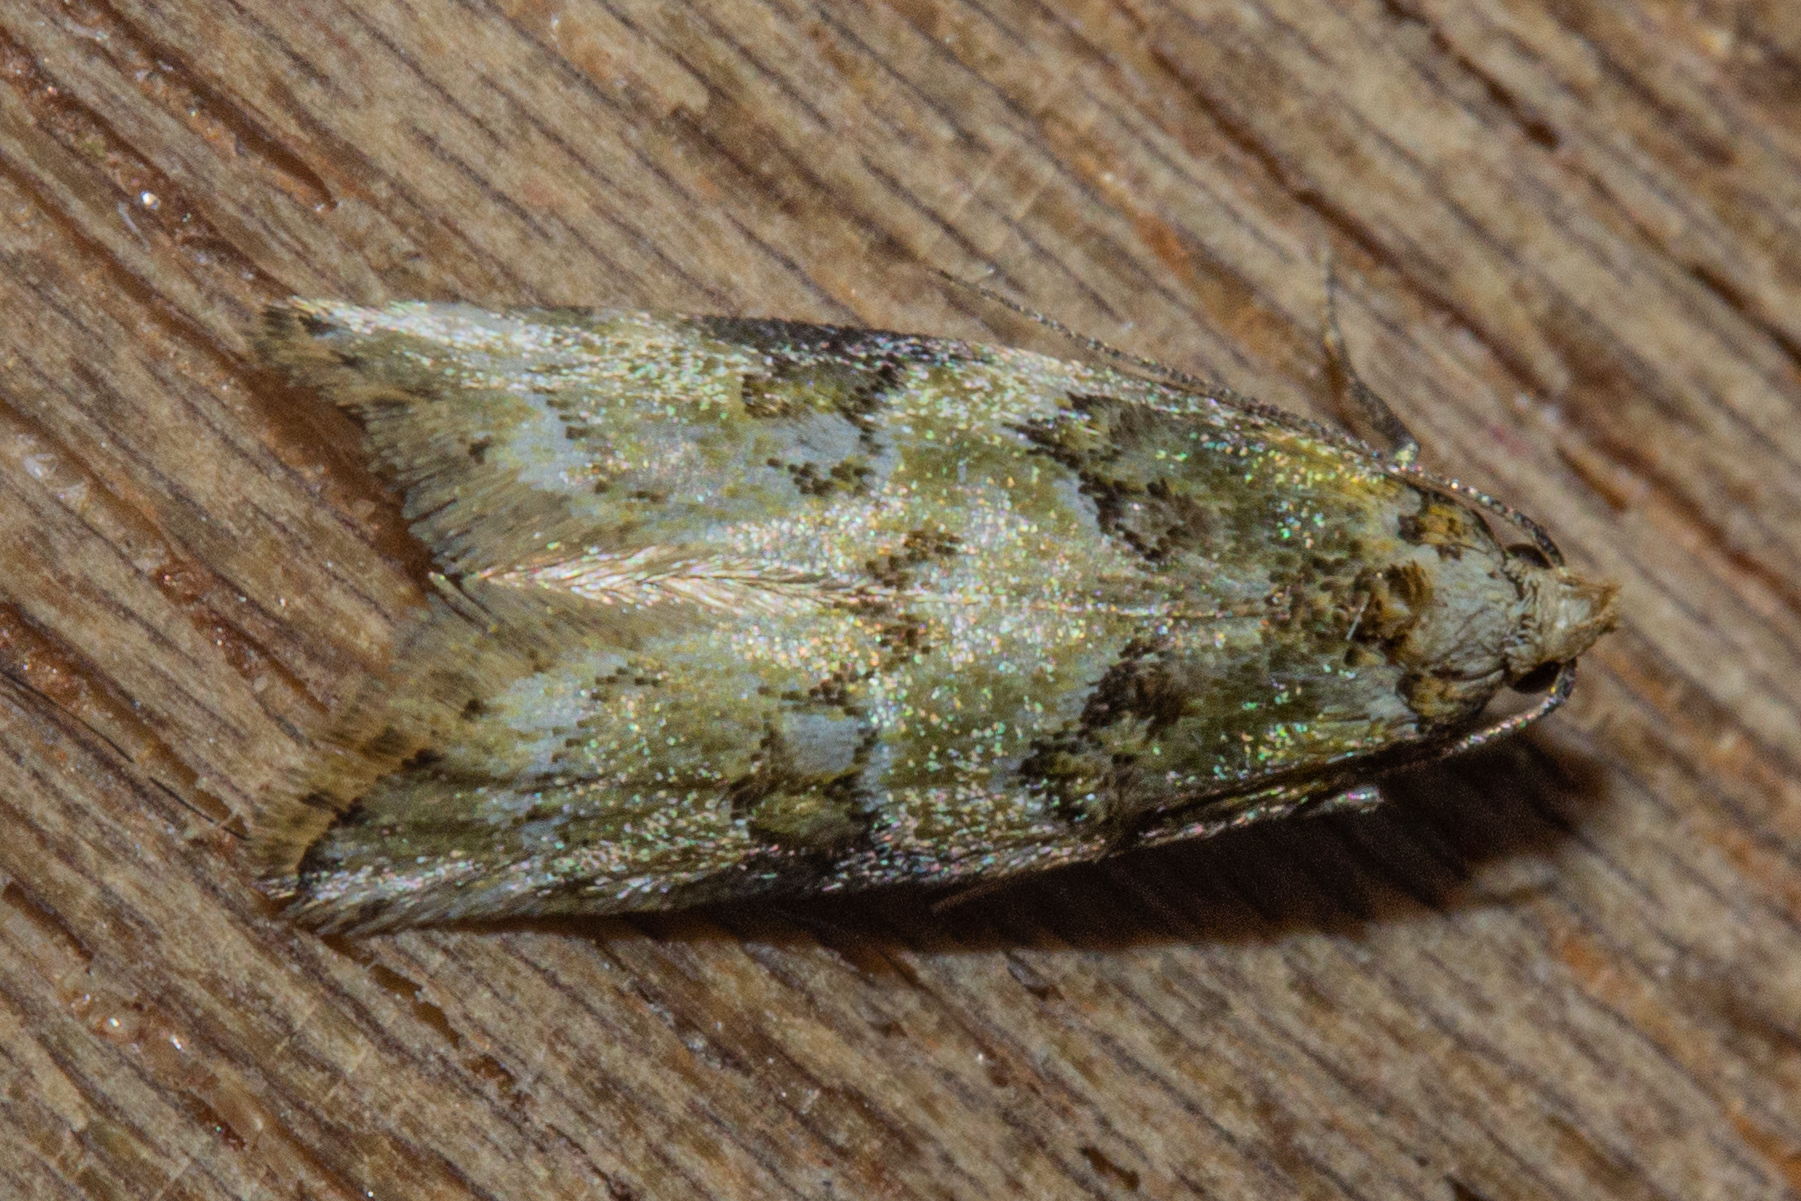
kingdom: Animalia
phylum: Arthropoda
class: Insecta
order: Lepidoptera
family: Oecophoridae
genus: Trachypepla
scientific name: Trachypepla protochlora
